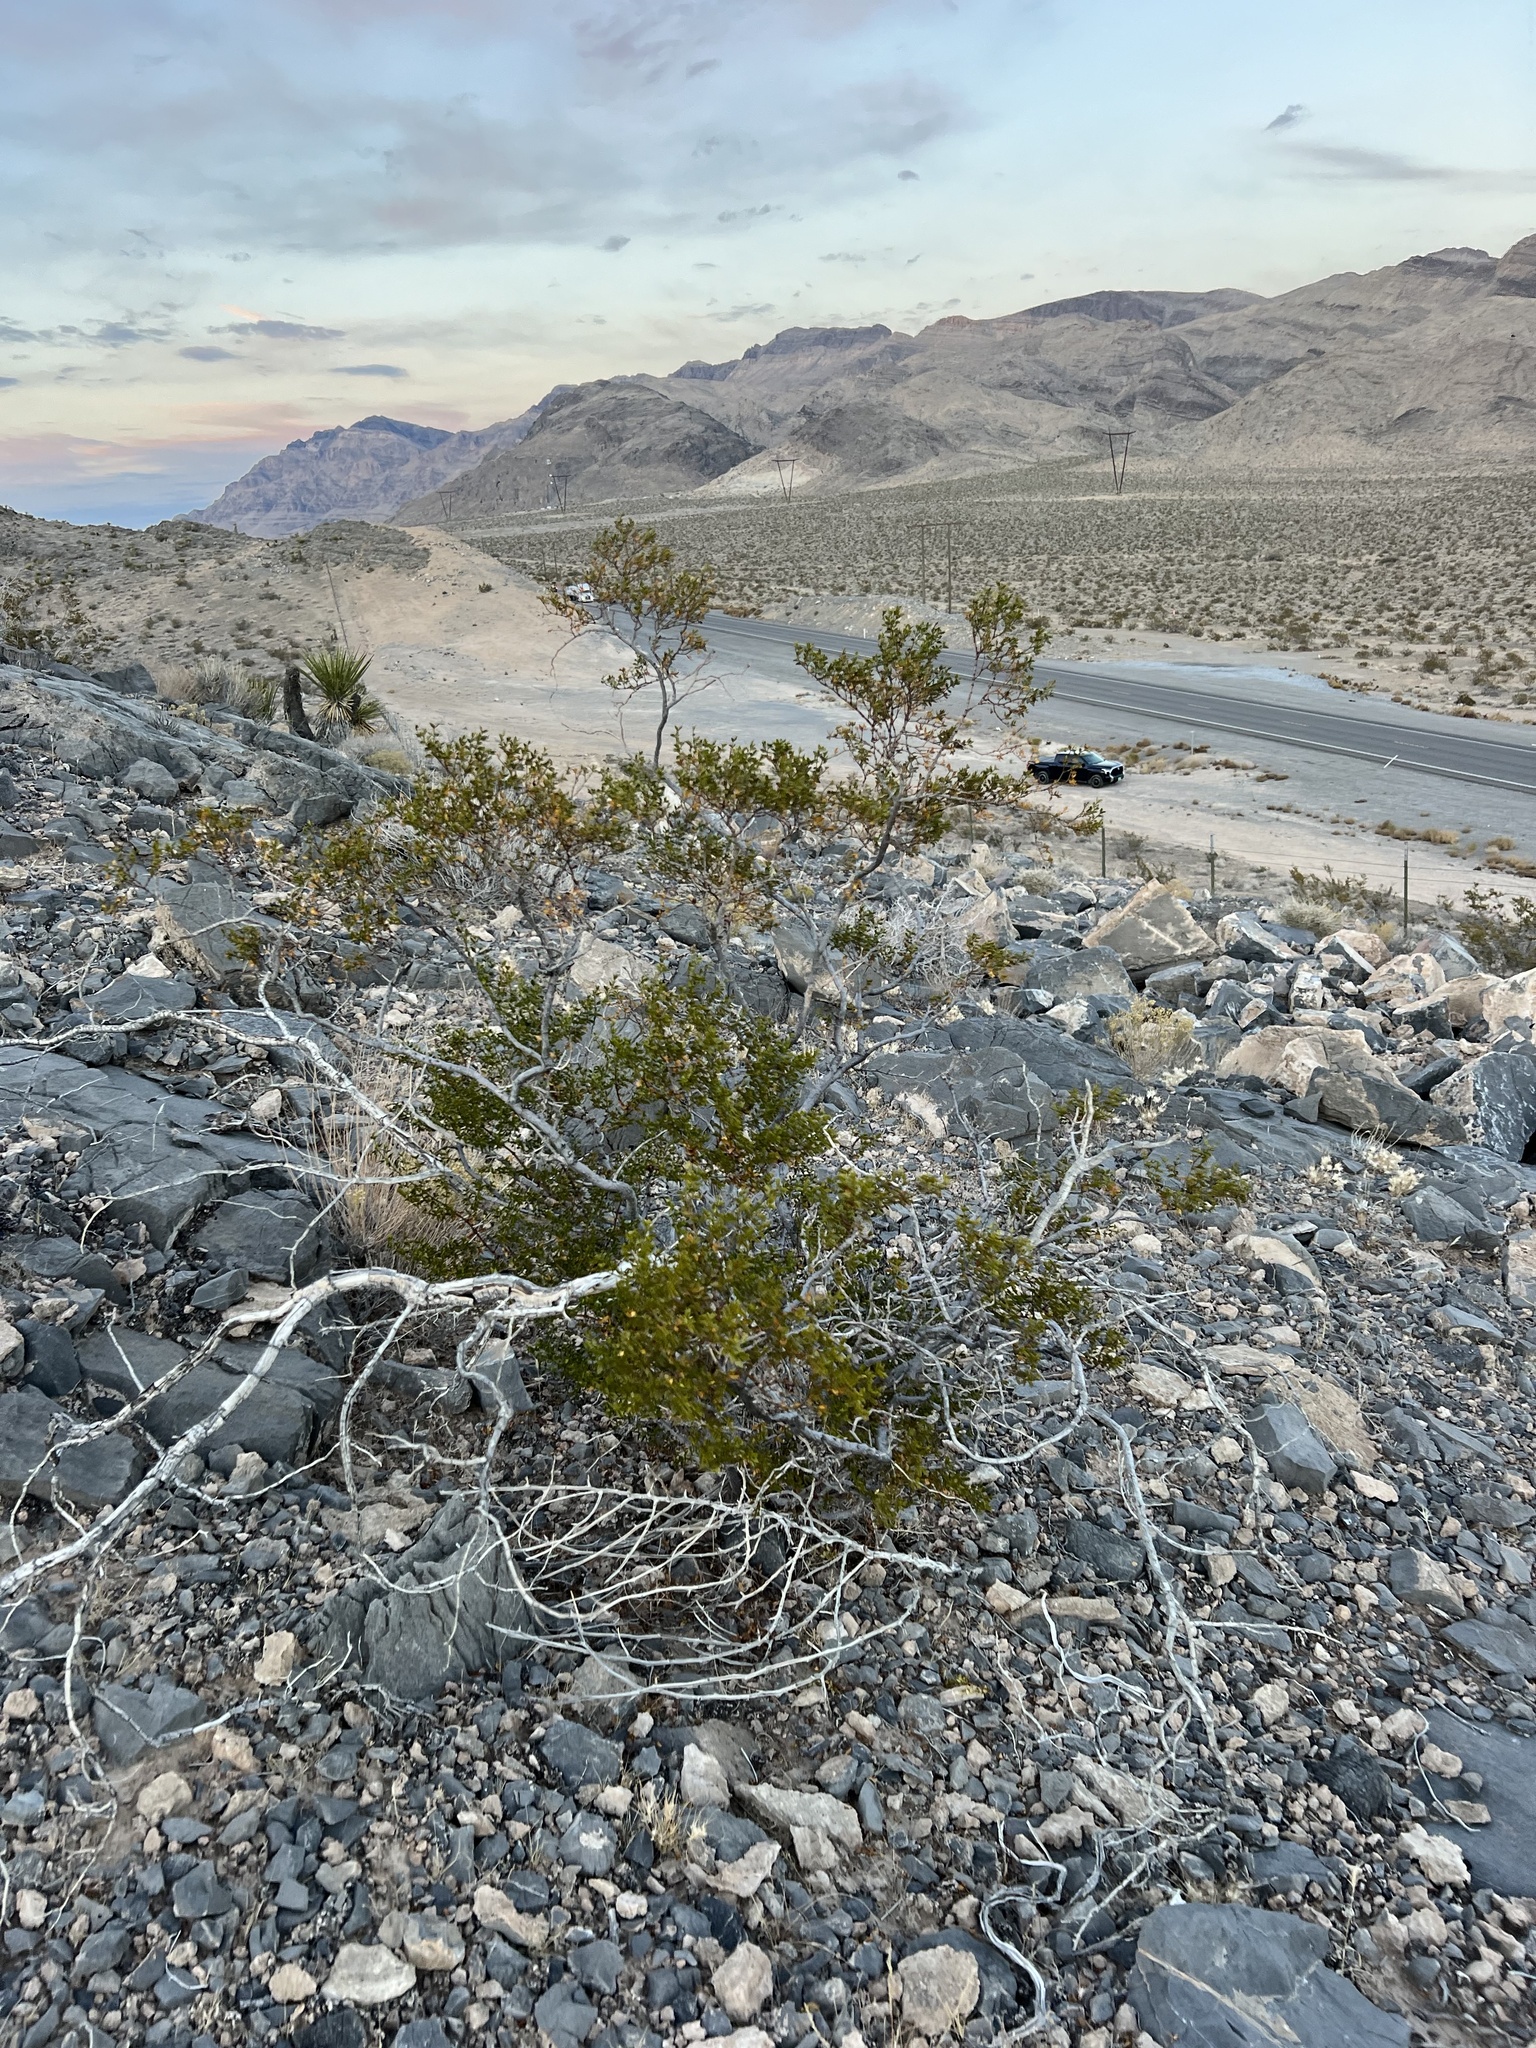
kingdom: Plantae
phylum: Tracheophyta
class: Magnoliopsida
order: Zygophyllales
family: Zygophyllaceae
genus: Larrea
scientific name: Larrea tridentata
